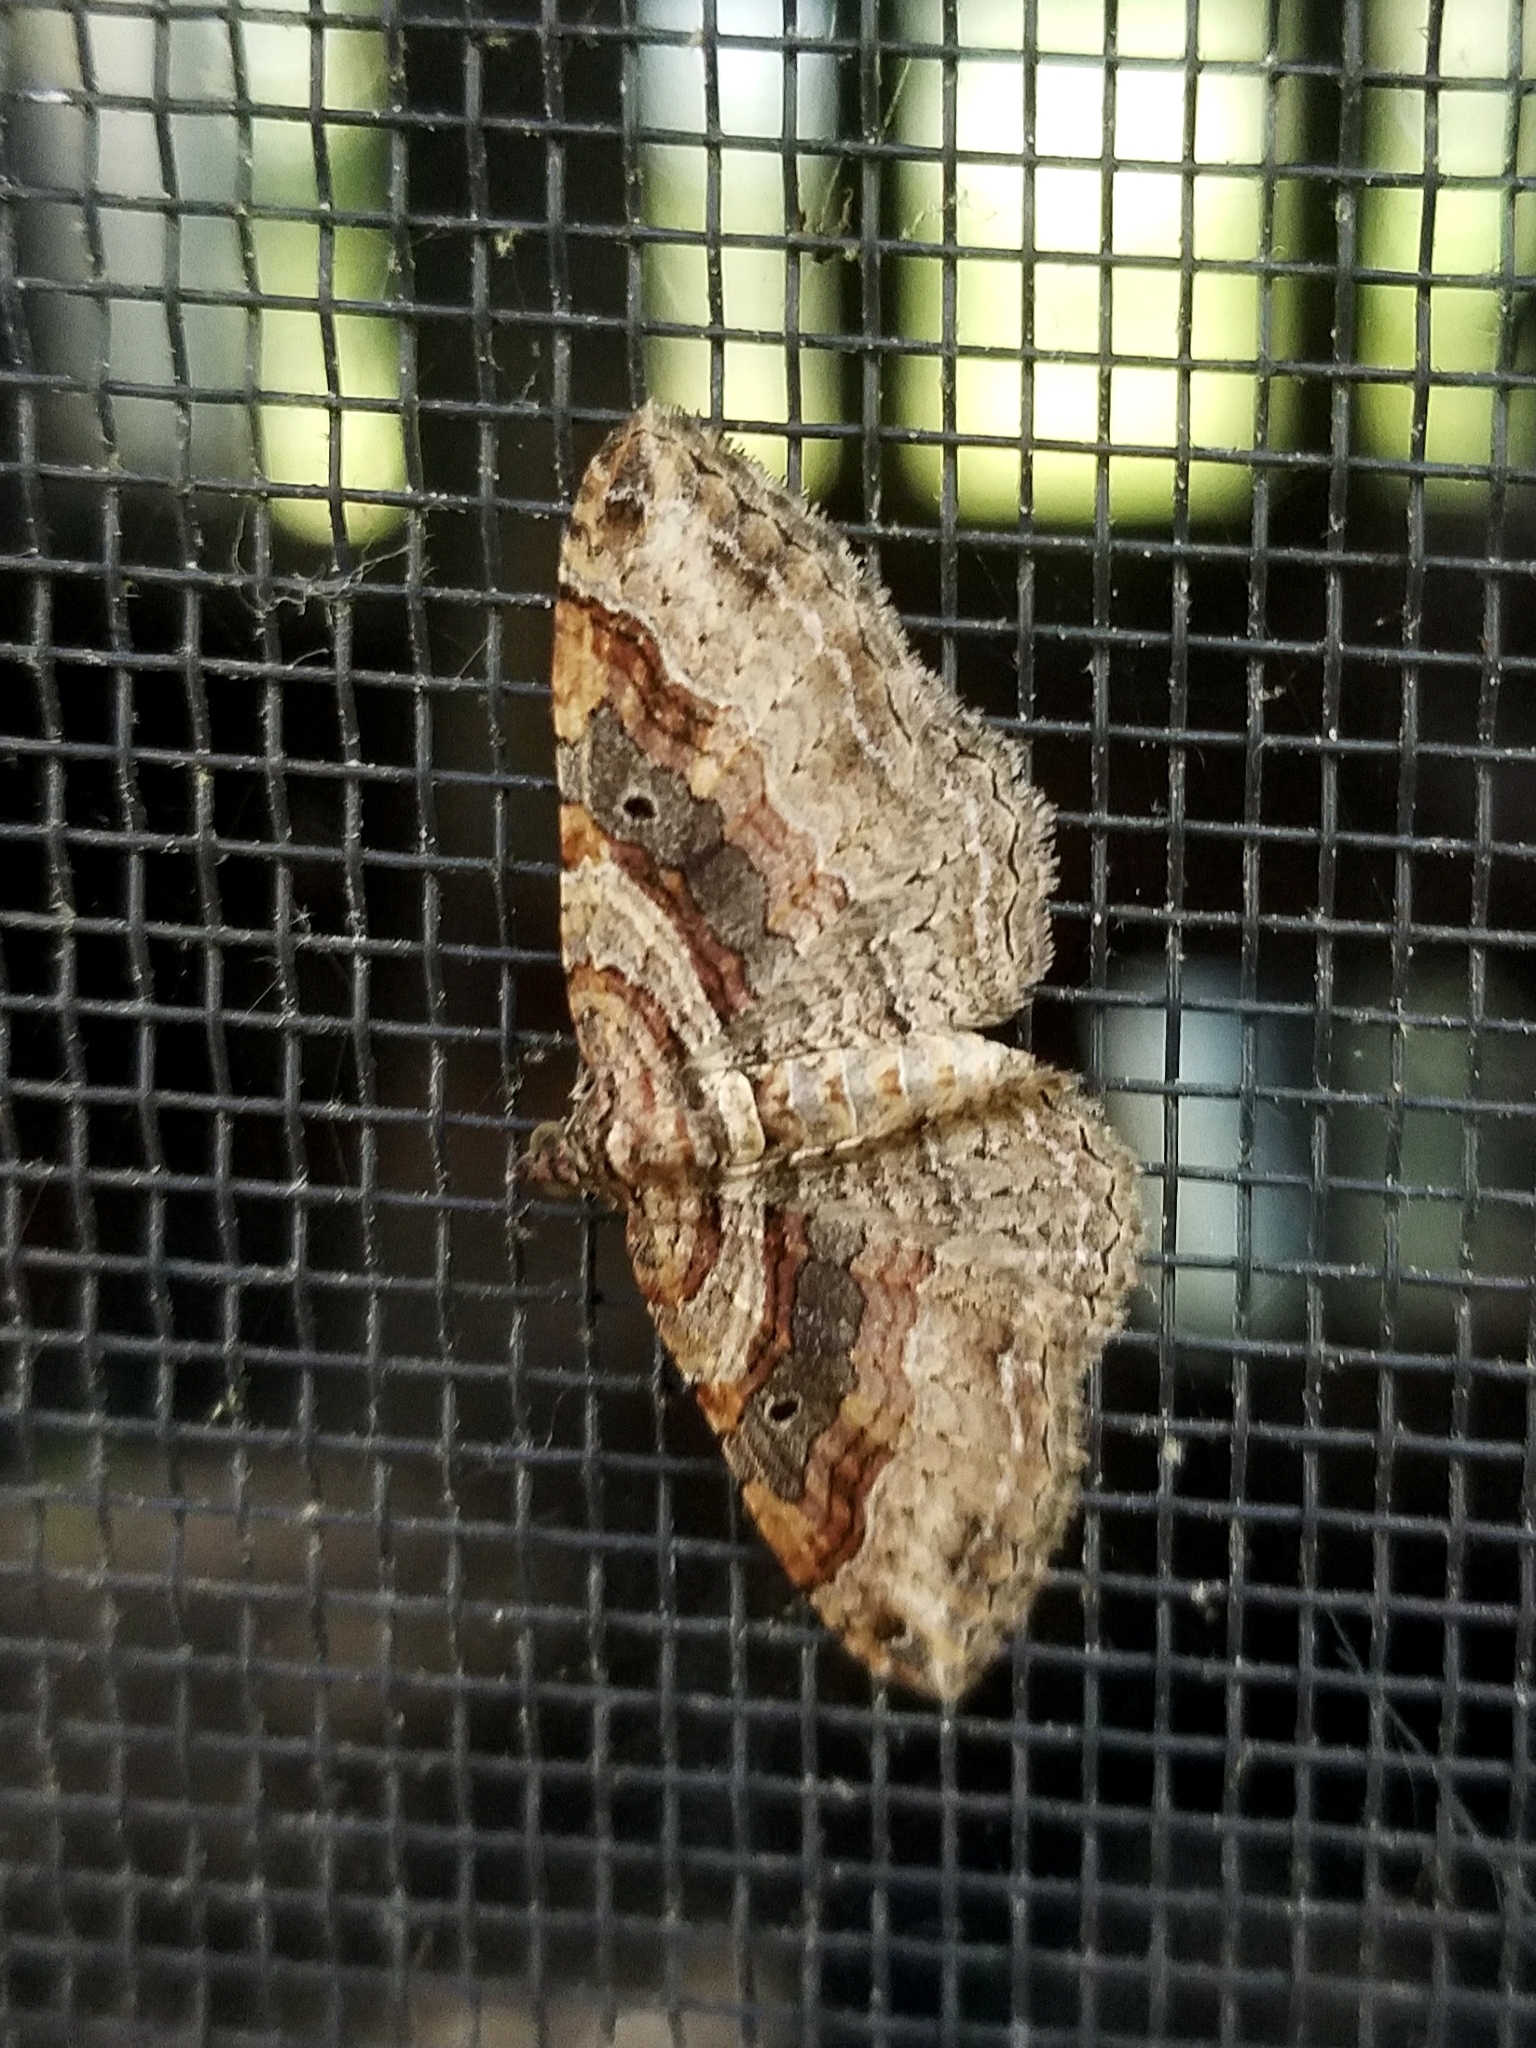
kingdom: Animalia
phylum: Arthropoda
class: Insecta
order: Lepidoptera
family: Geometridae
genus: Costaconvexa
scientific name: Costaconvexa centrostrigaria
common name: Bent-line carpet
